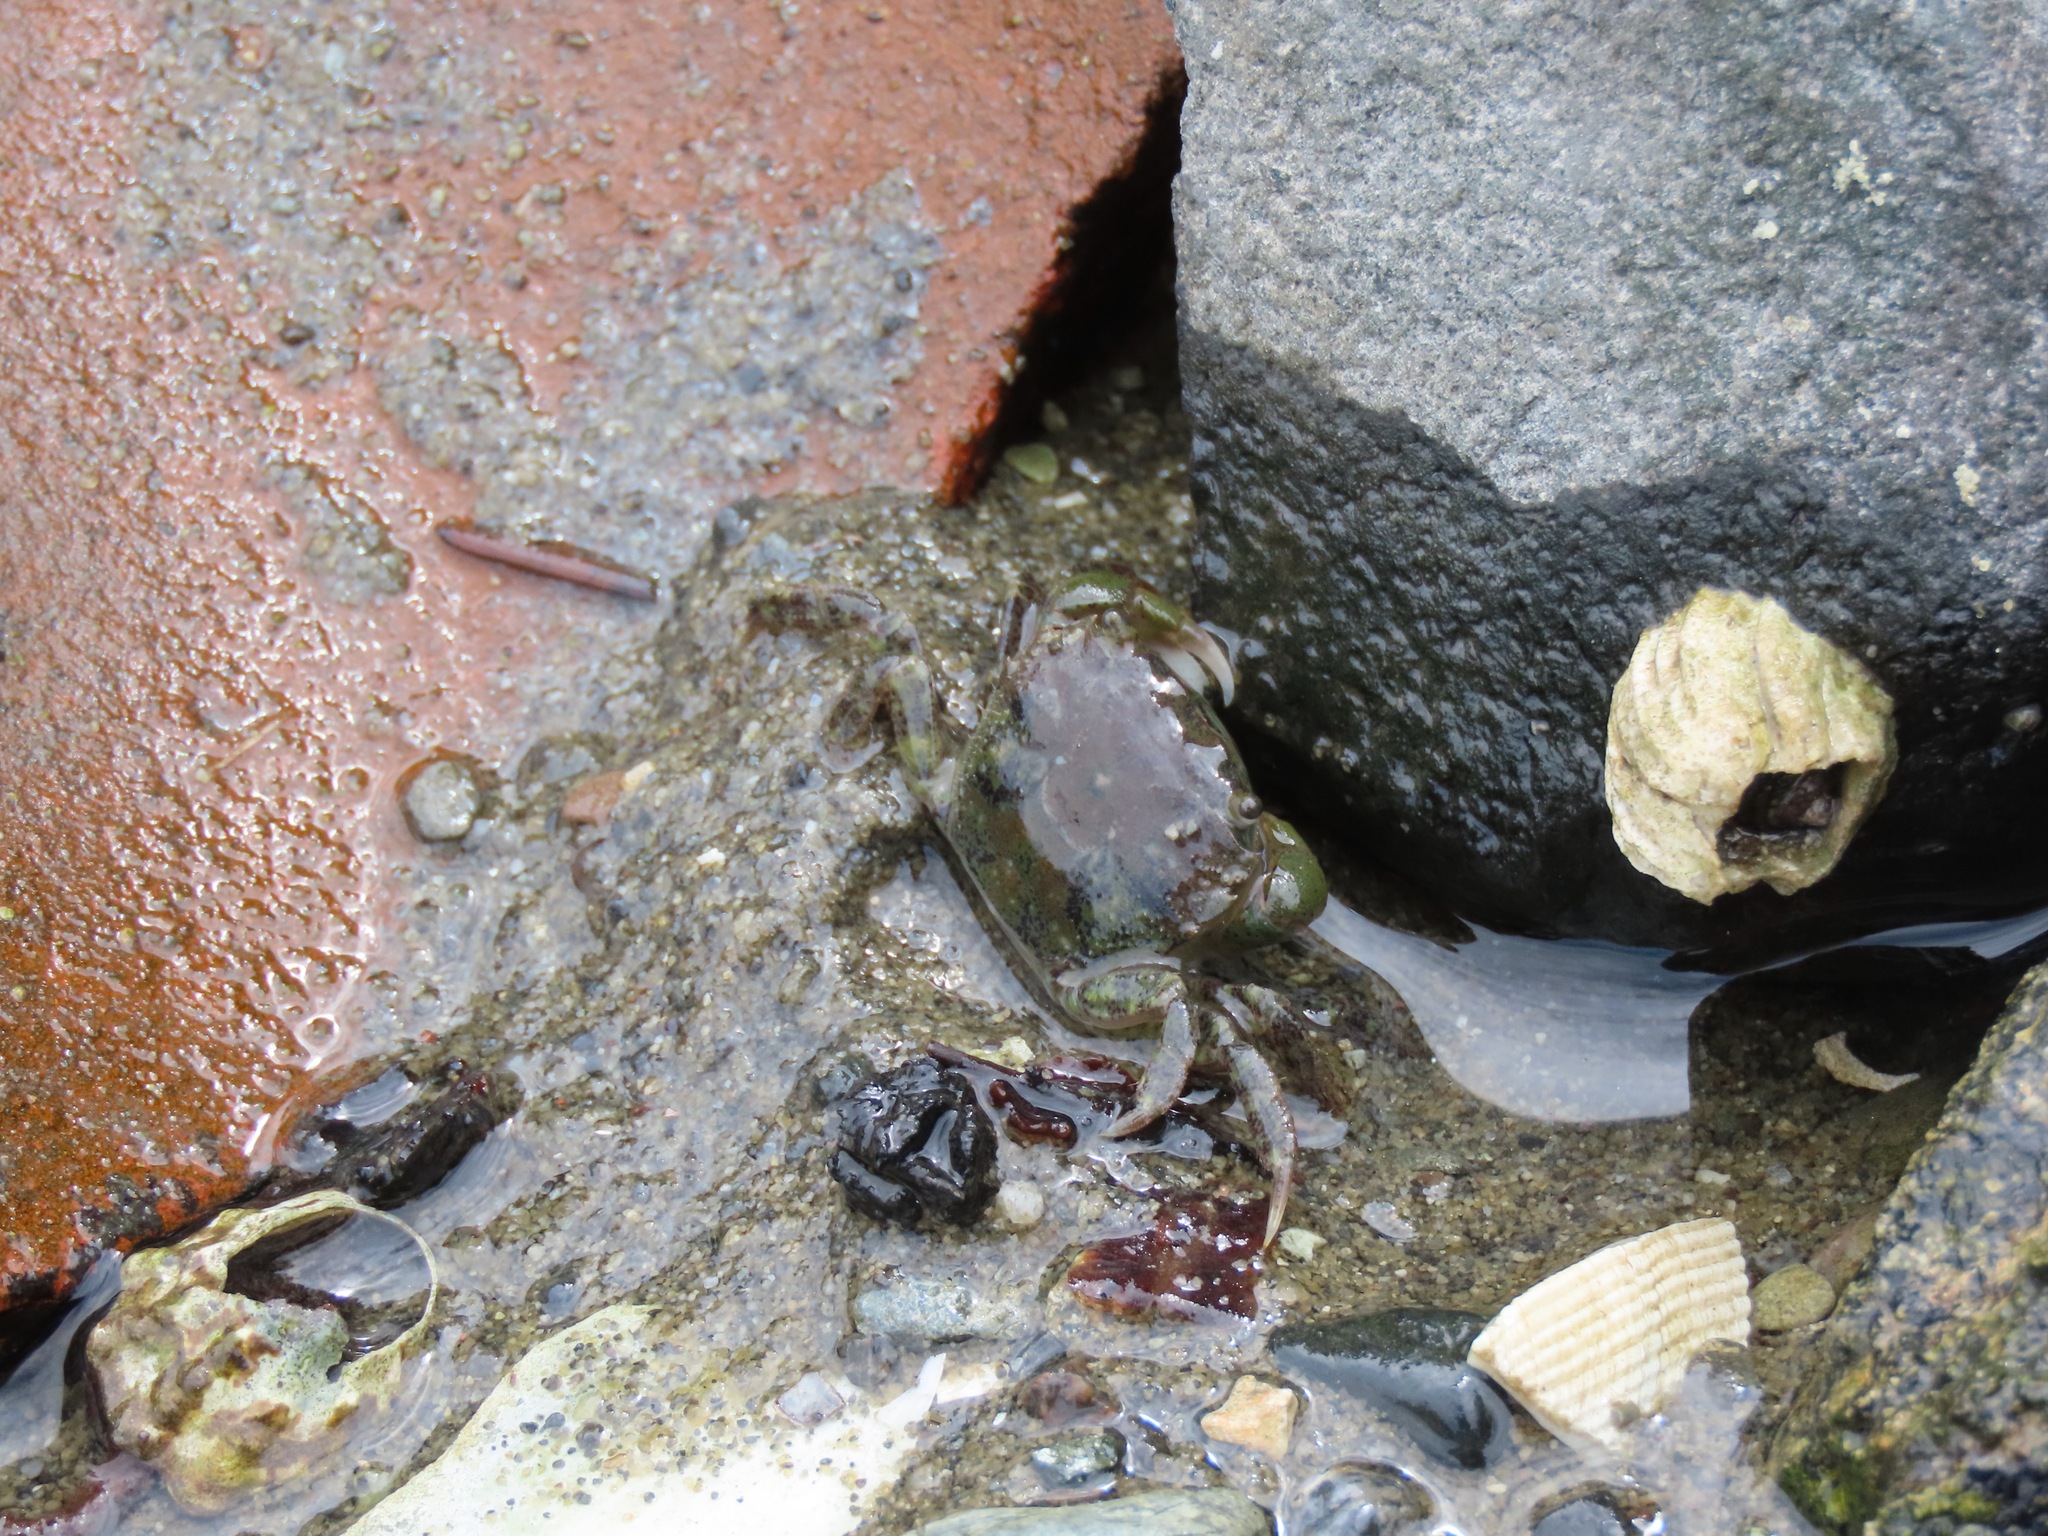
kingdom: Animalia
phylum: Arthropoda
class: Malacostraca
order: Decapoda
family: Varunidae
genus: Hemigrapsus
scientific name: Hemigrapsus oregonensis
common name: Yellow shore crab
